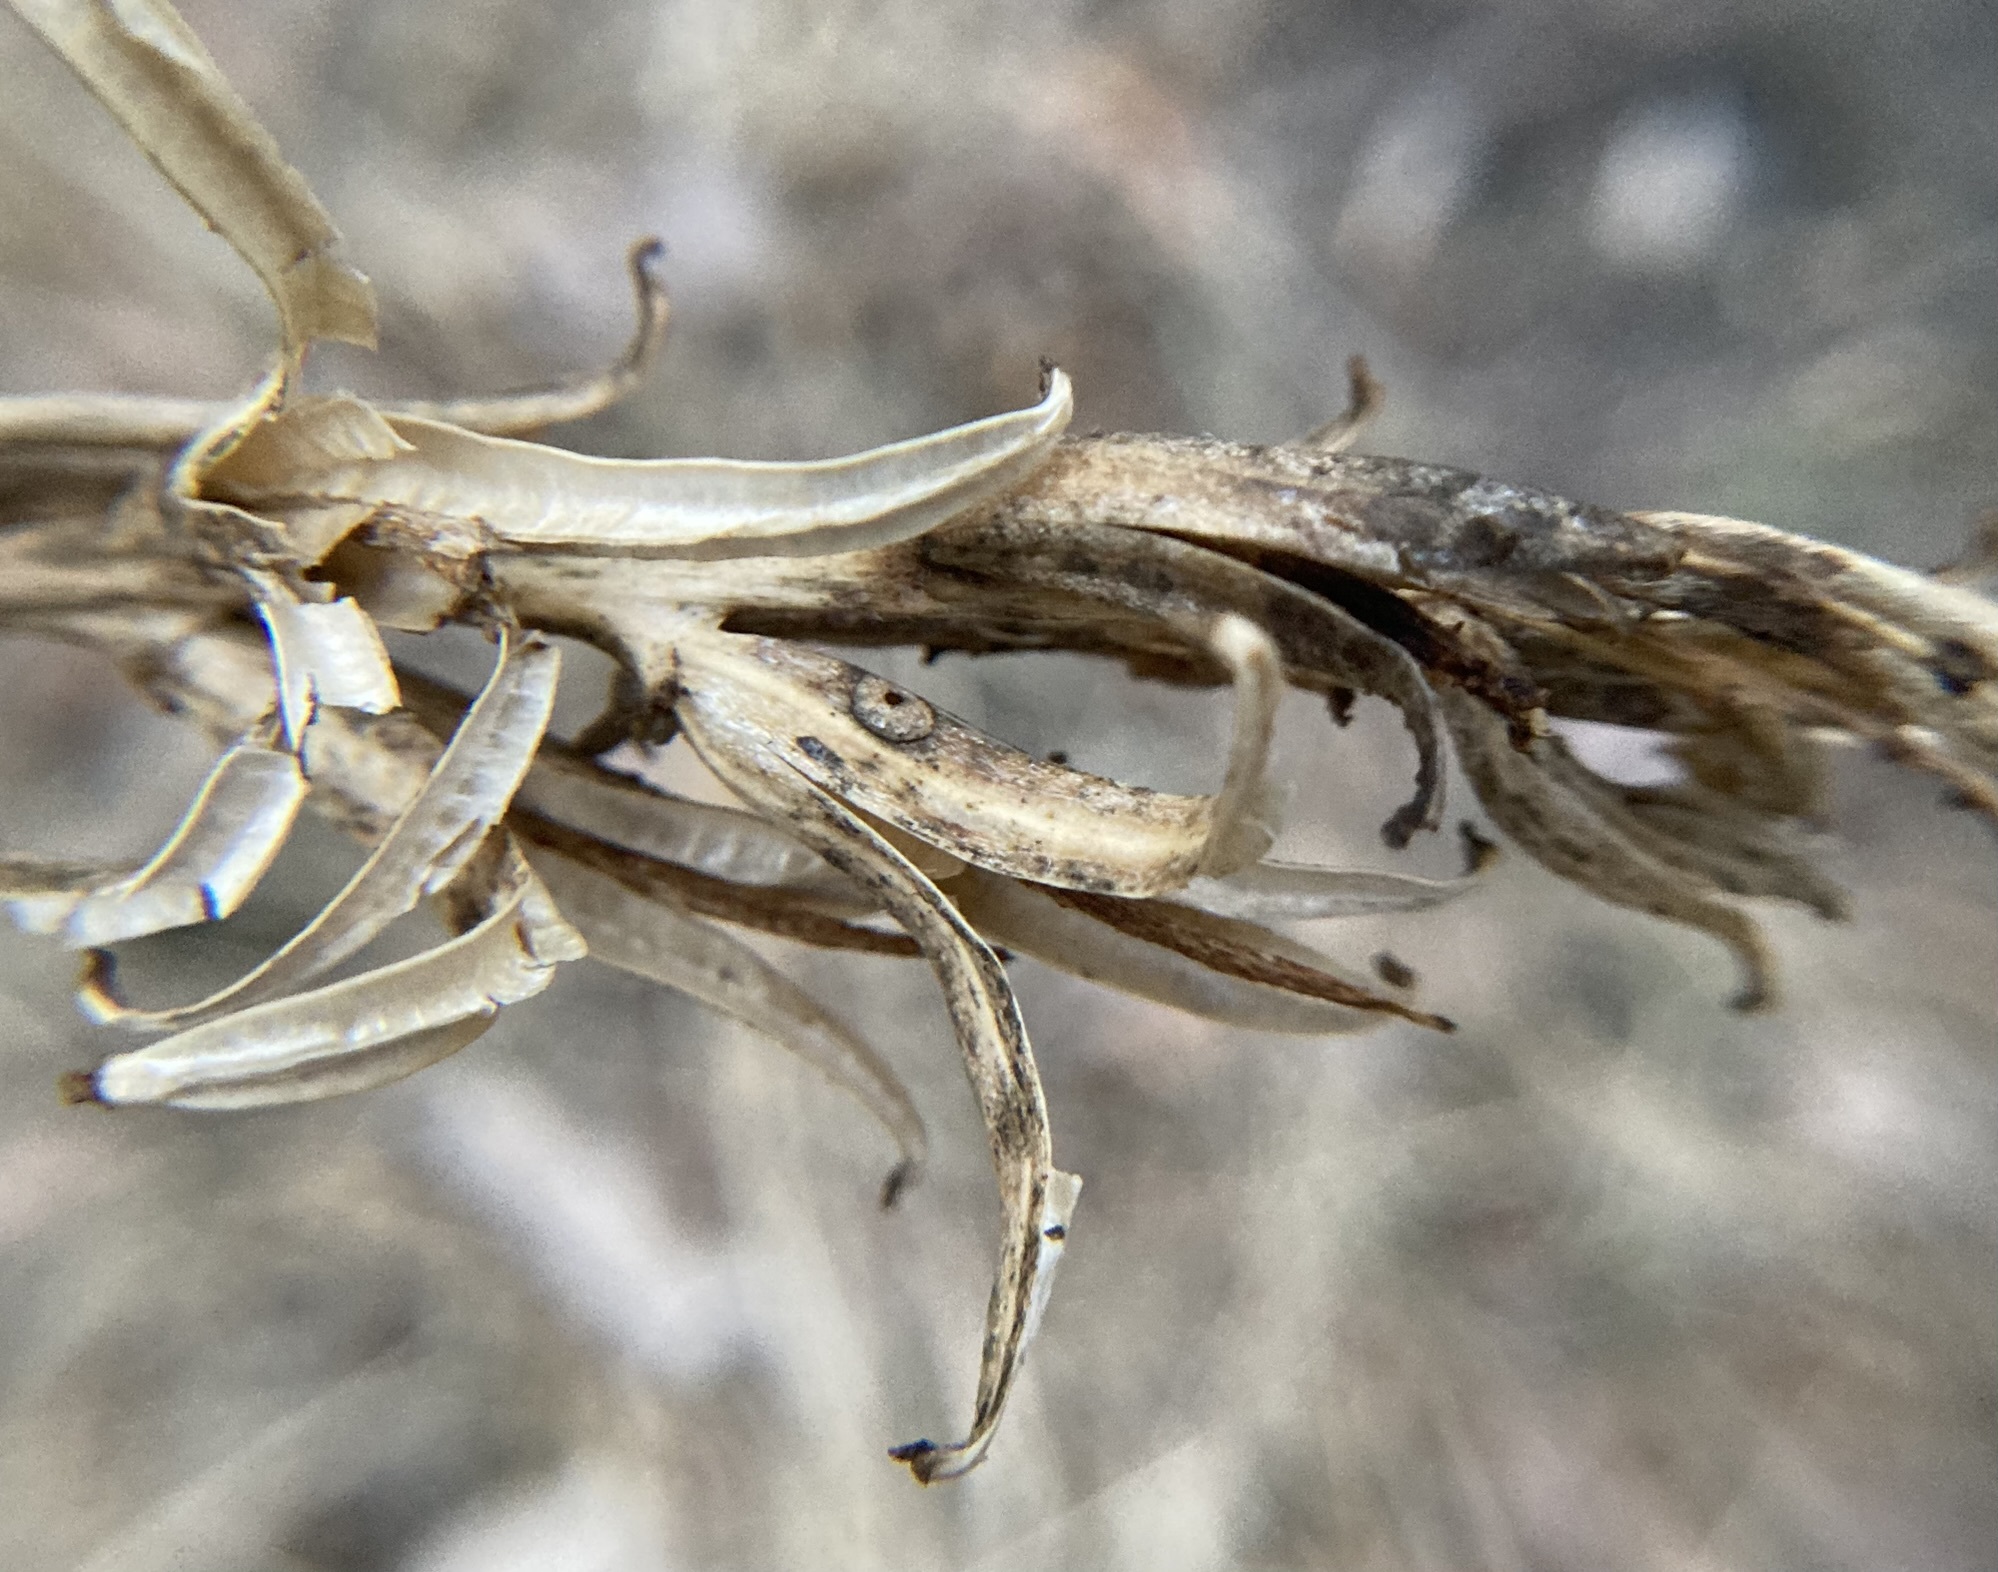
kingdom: Plantae
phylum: Tracheophyta
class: Magnoliopsida
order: Myrtales
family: Onagraceae
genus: Oenothera
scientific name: Oenothera biennis
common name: Common evening-primrose
